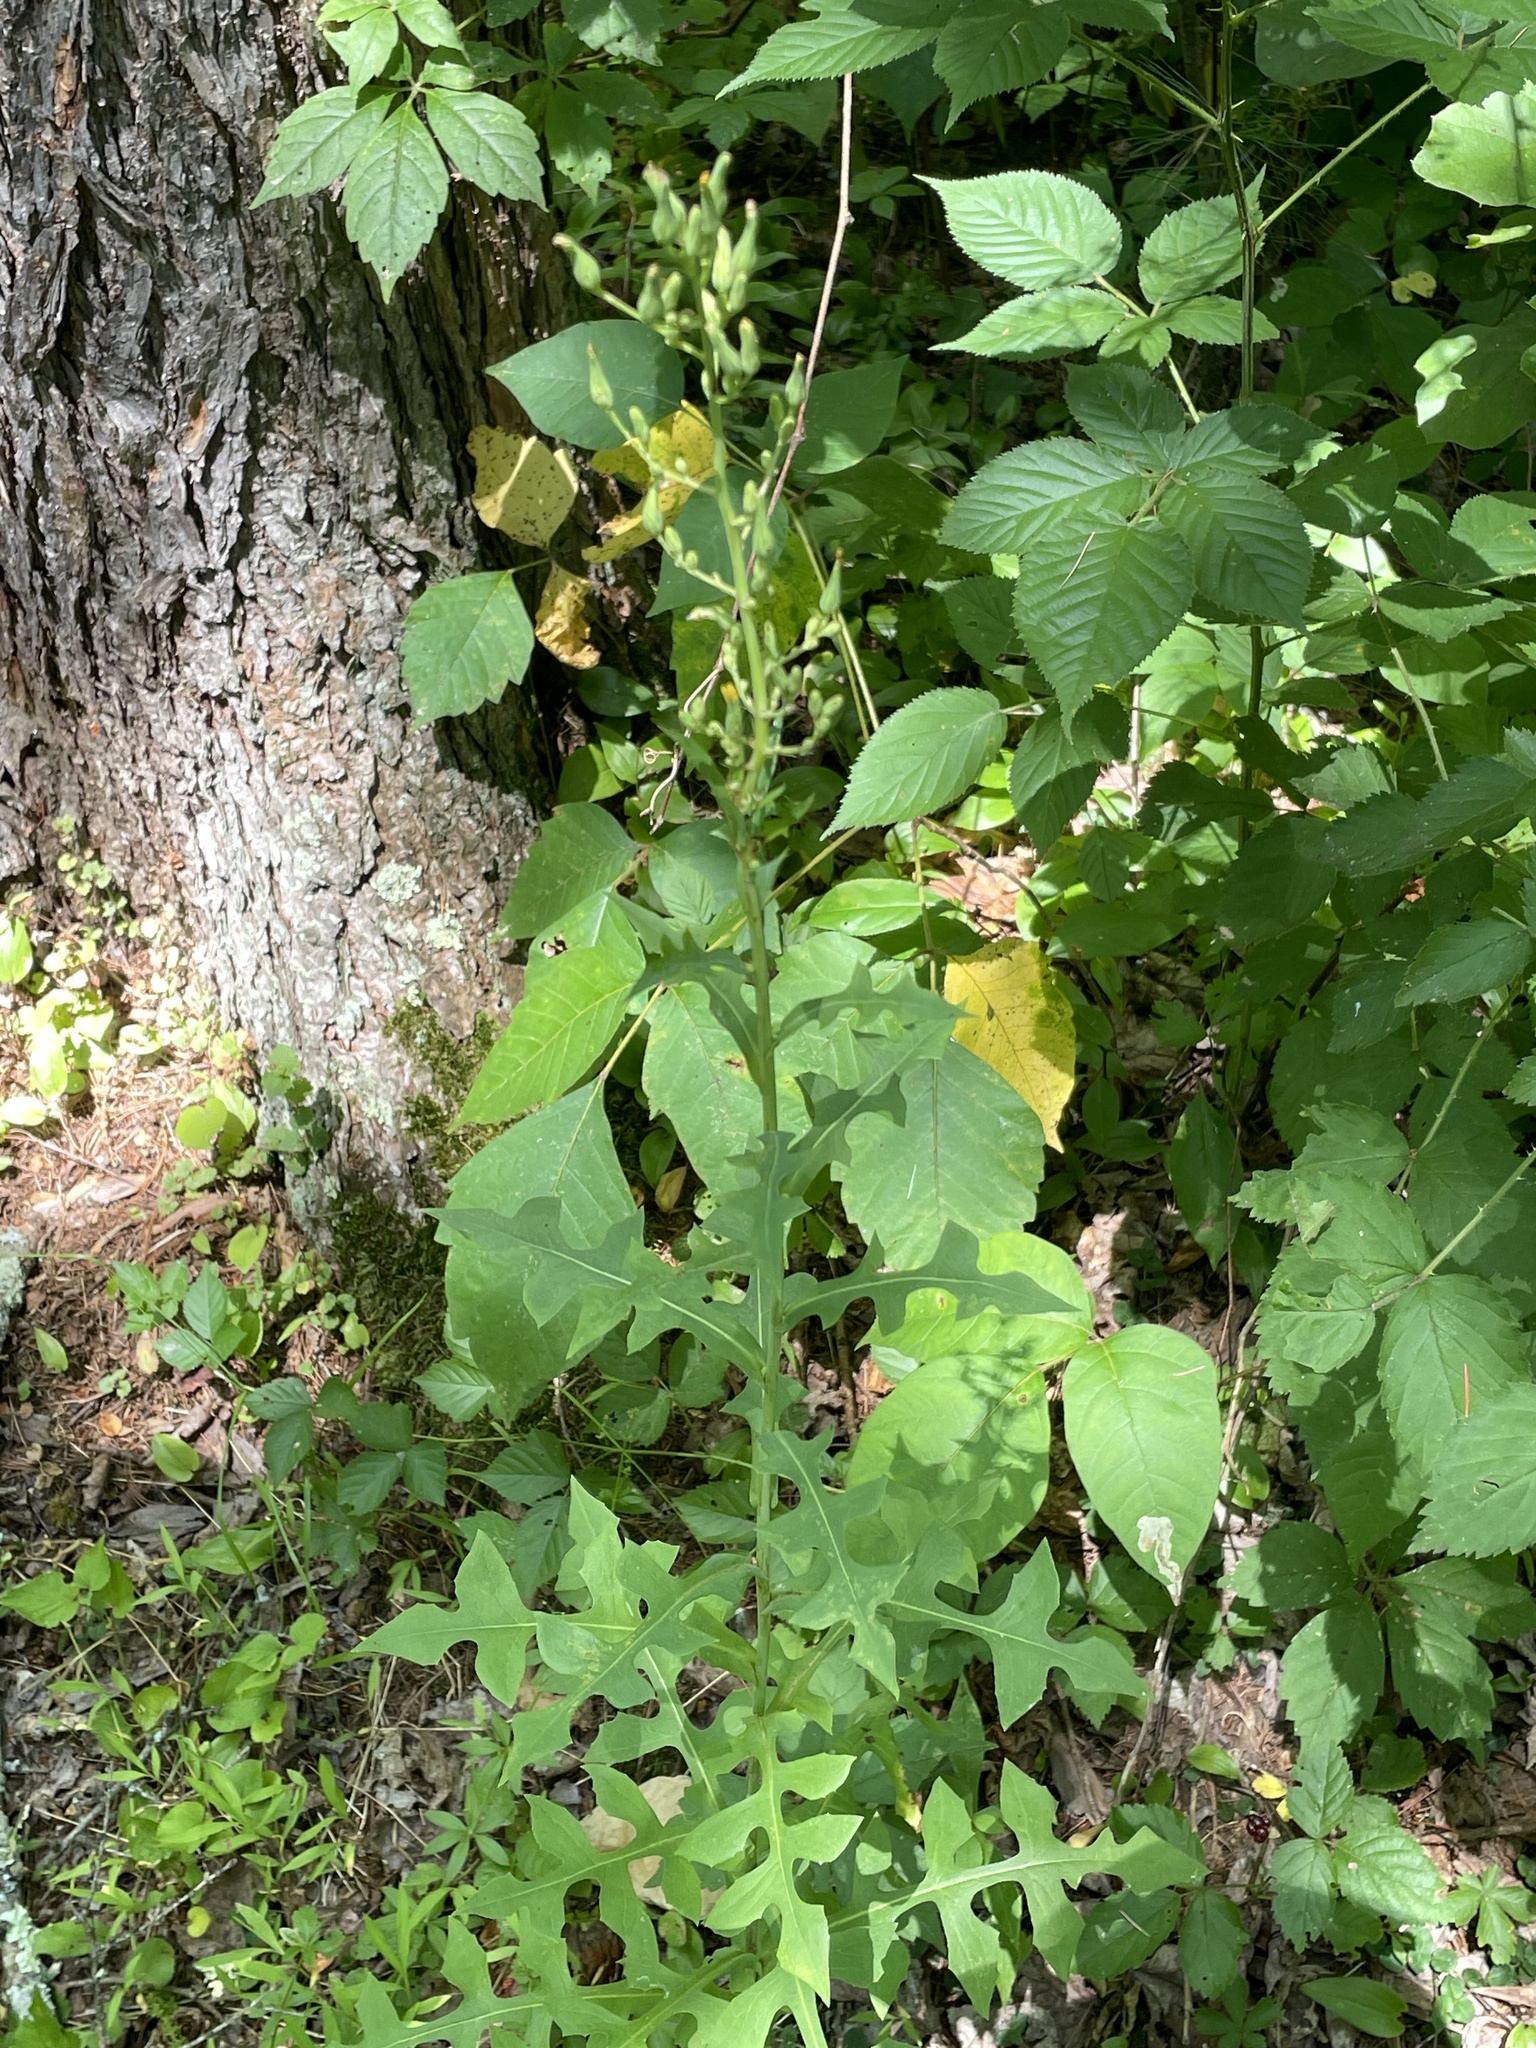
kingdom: Plantae
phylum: Tracheophyta
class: Magnoliopsida
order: Asterales
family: Asteraceae
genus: Lactuca
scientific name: Lactuca canadensis
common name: Canada lettuce
